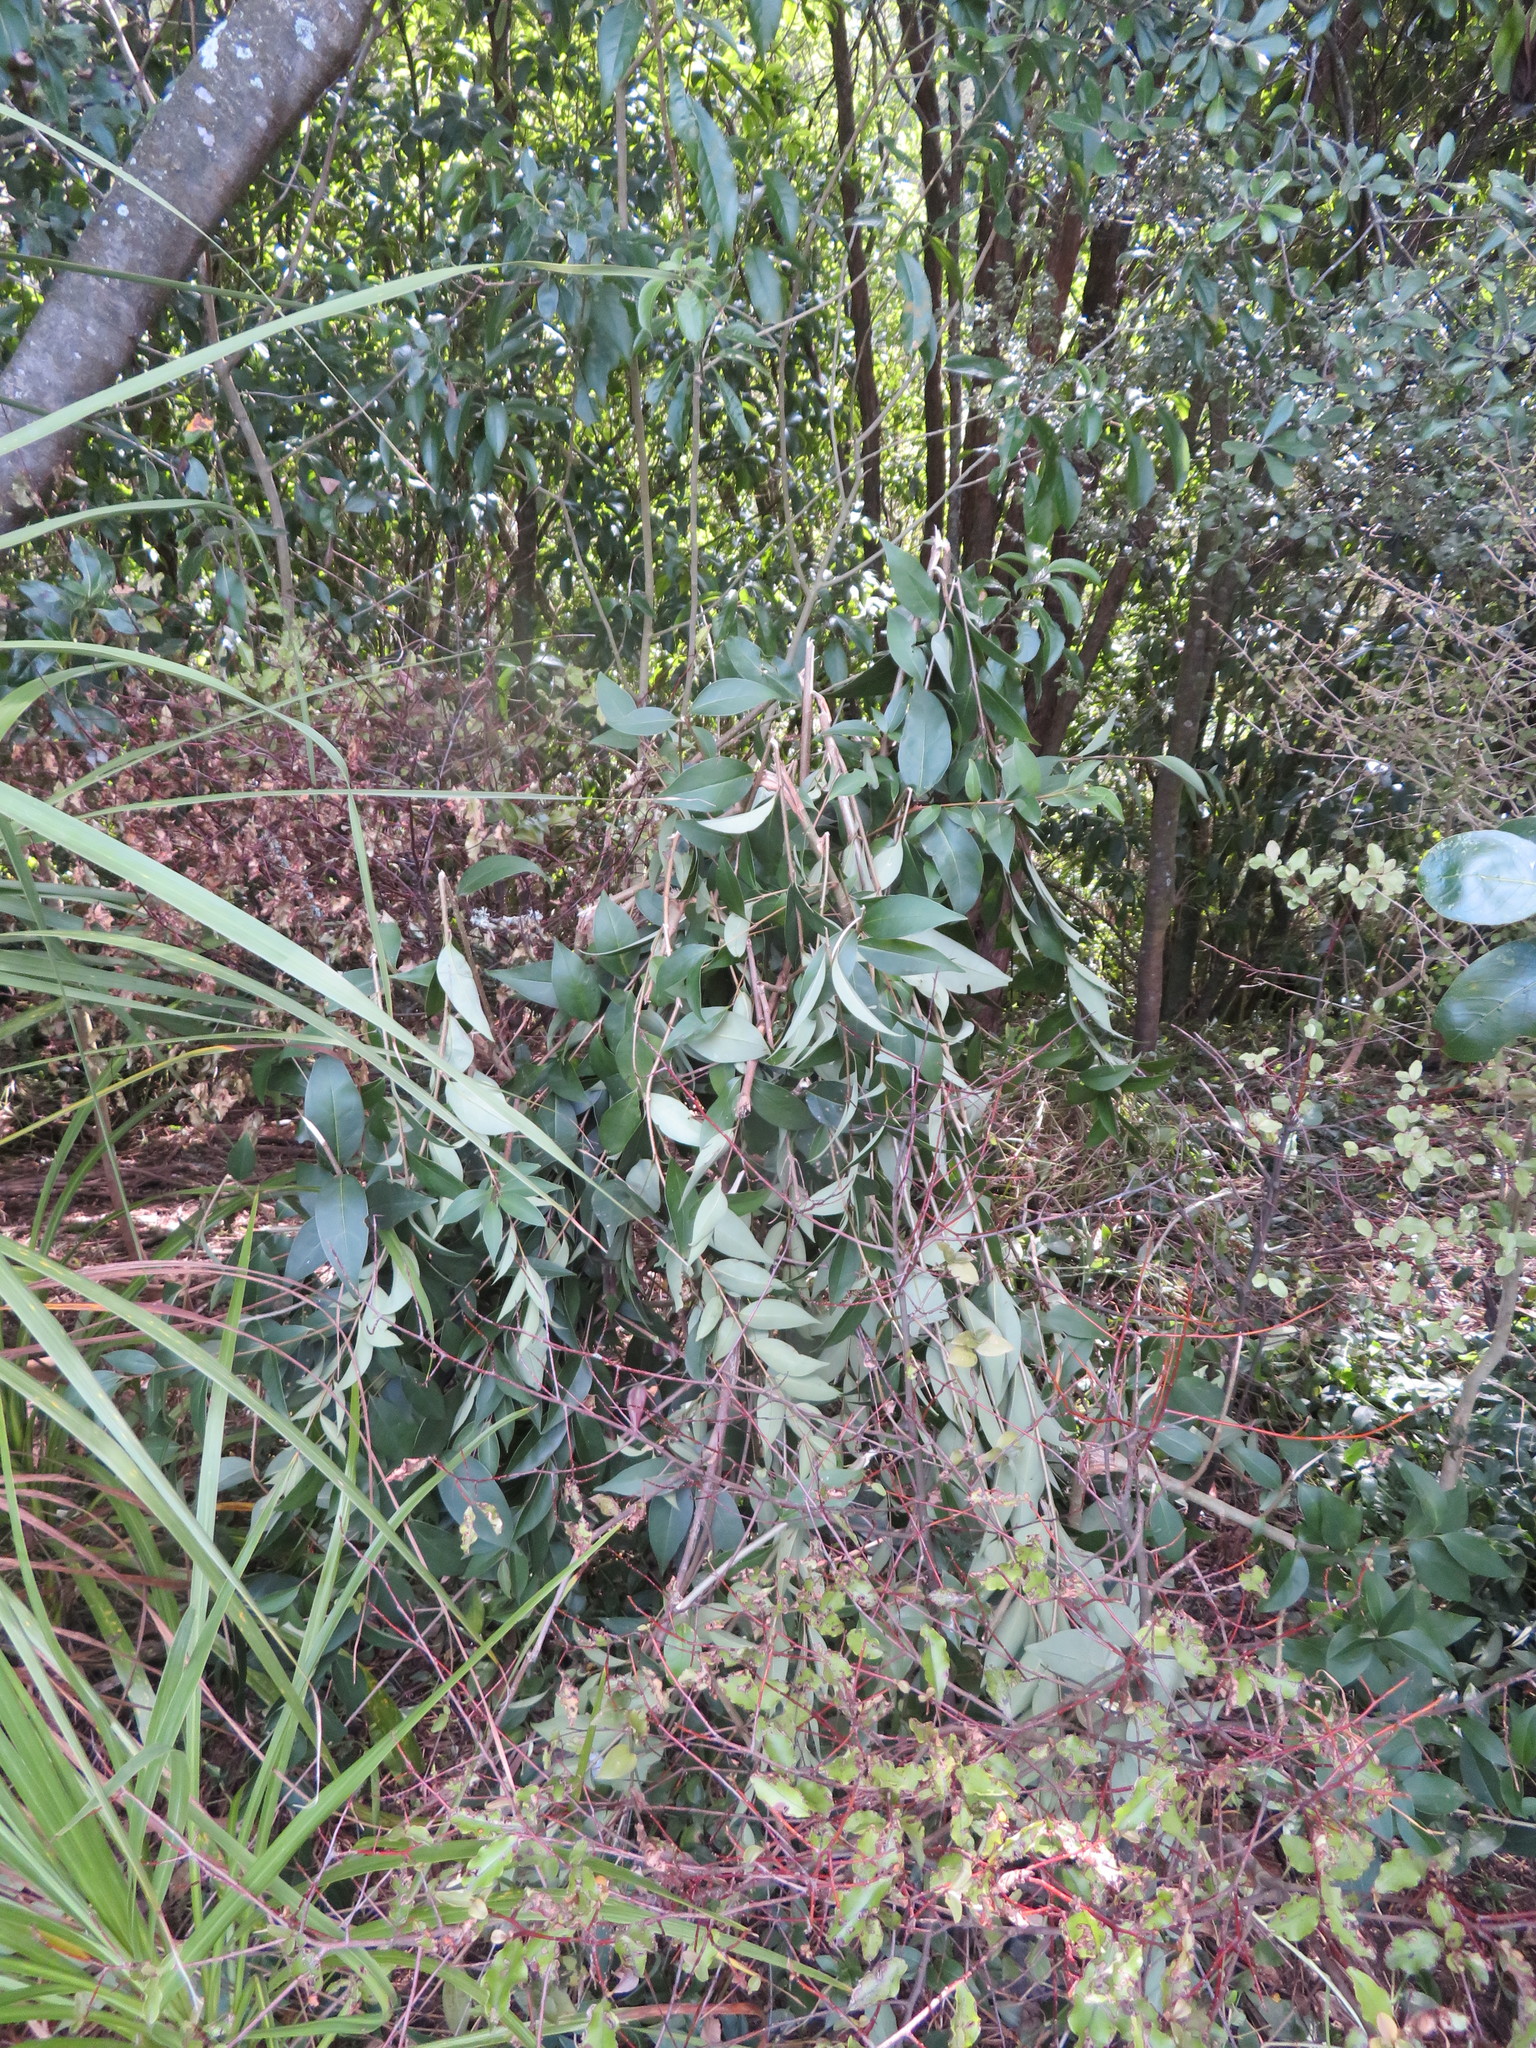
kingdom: Plantae
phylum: Tracheophyta
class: Magnoliopsida
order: Lamiales
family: Oleaceae
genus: Ligustrum
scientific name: Ligustrum lucidum
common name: Glossy privet
